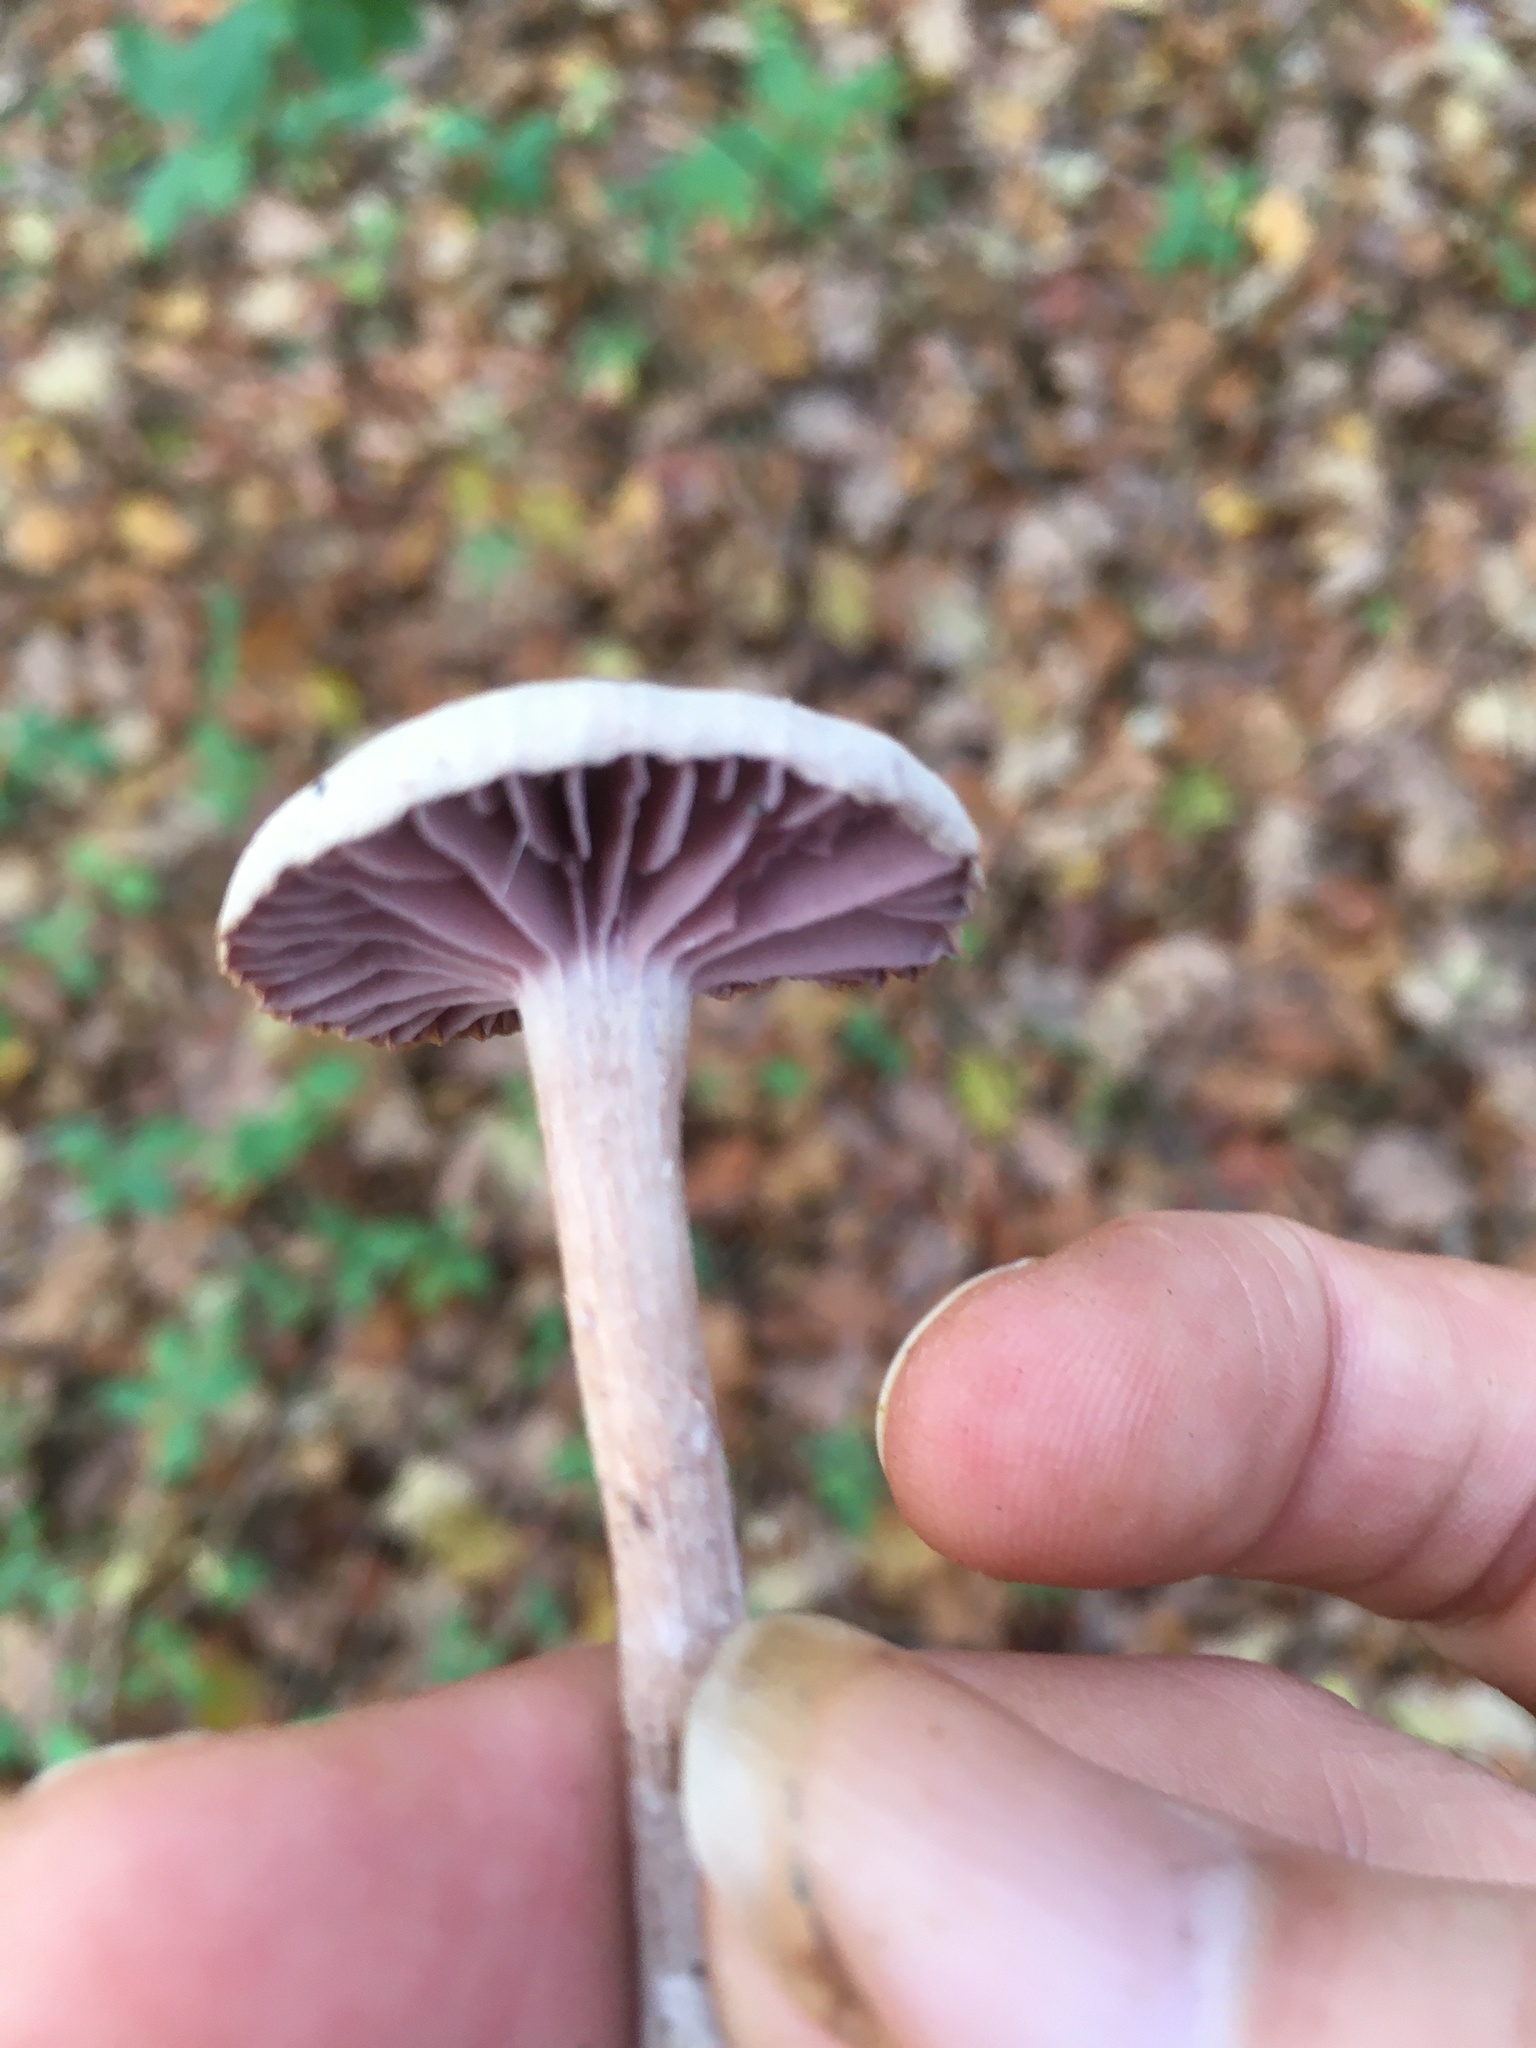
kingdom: Fungi
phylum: Basidiomycota
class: Agaricomycetes
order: Agaricales
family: Hydnangiaceae
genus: Laccaria
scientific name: Laccaria amethystina
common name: Amethyst deceiver
